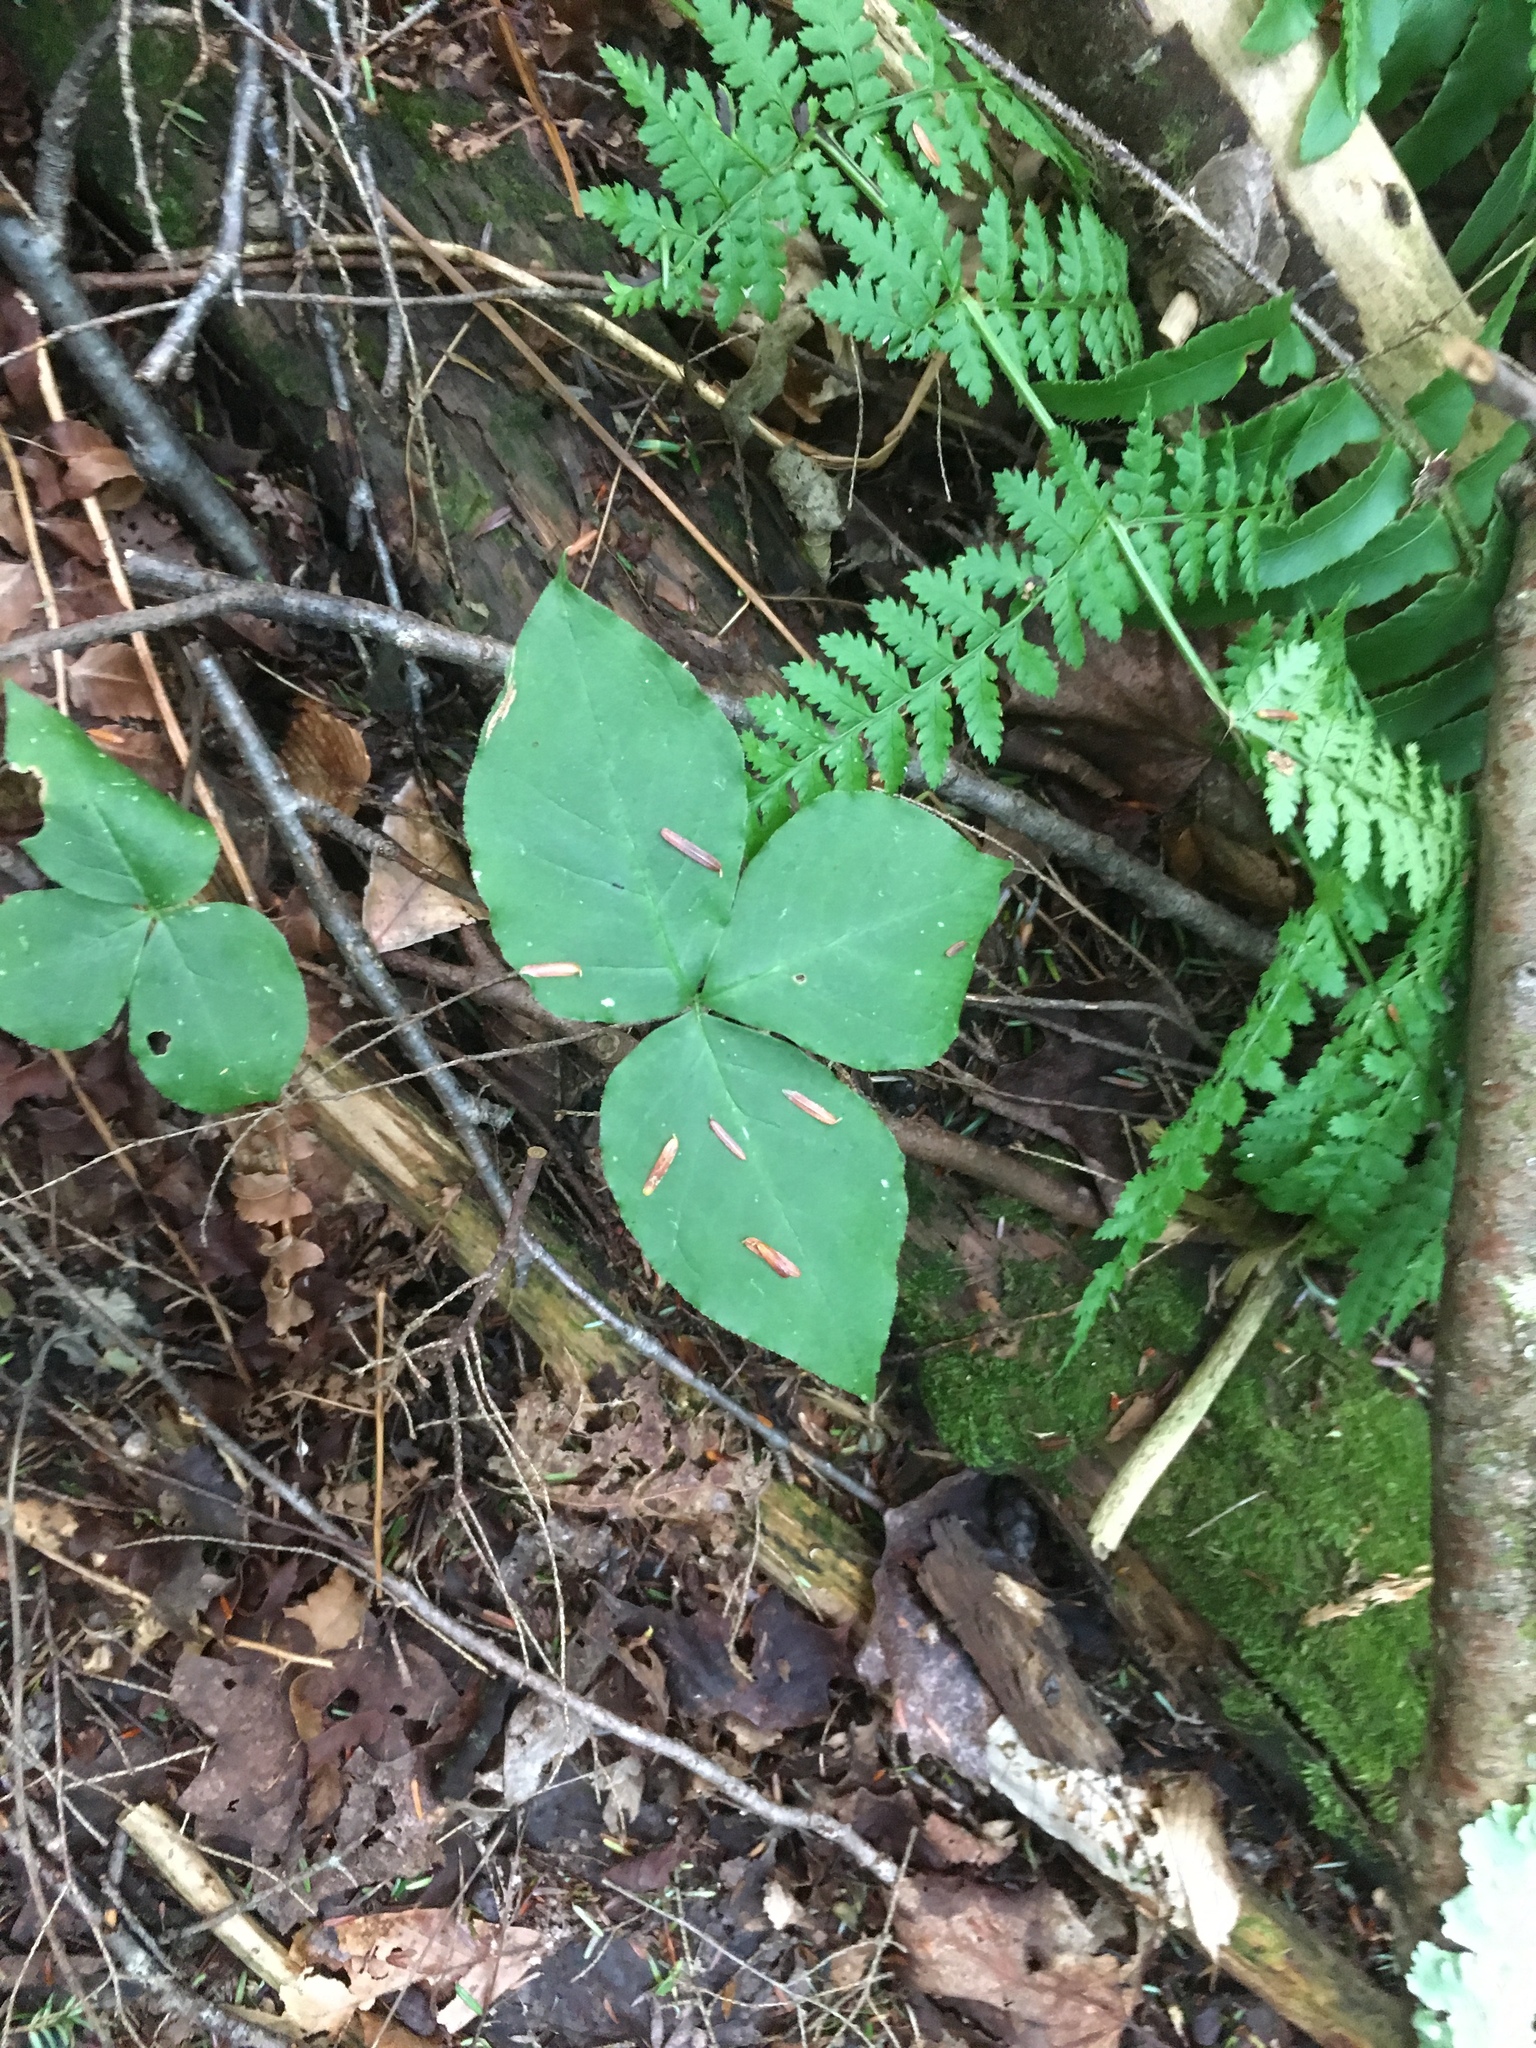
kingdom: Plantae
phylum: Tracheophyta
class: Liliopsida
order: Alismatales
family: Araceae
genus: Arisaema
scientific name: Arisaema triphyllum
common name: Jack-in-the-pulpit
